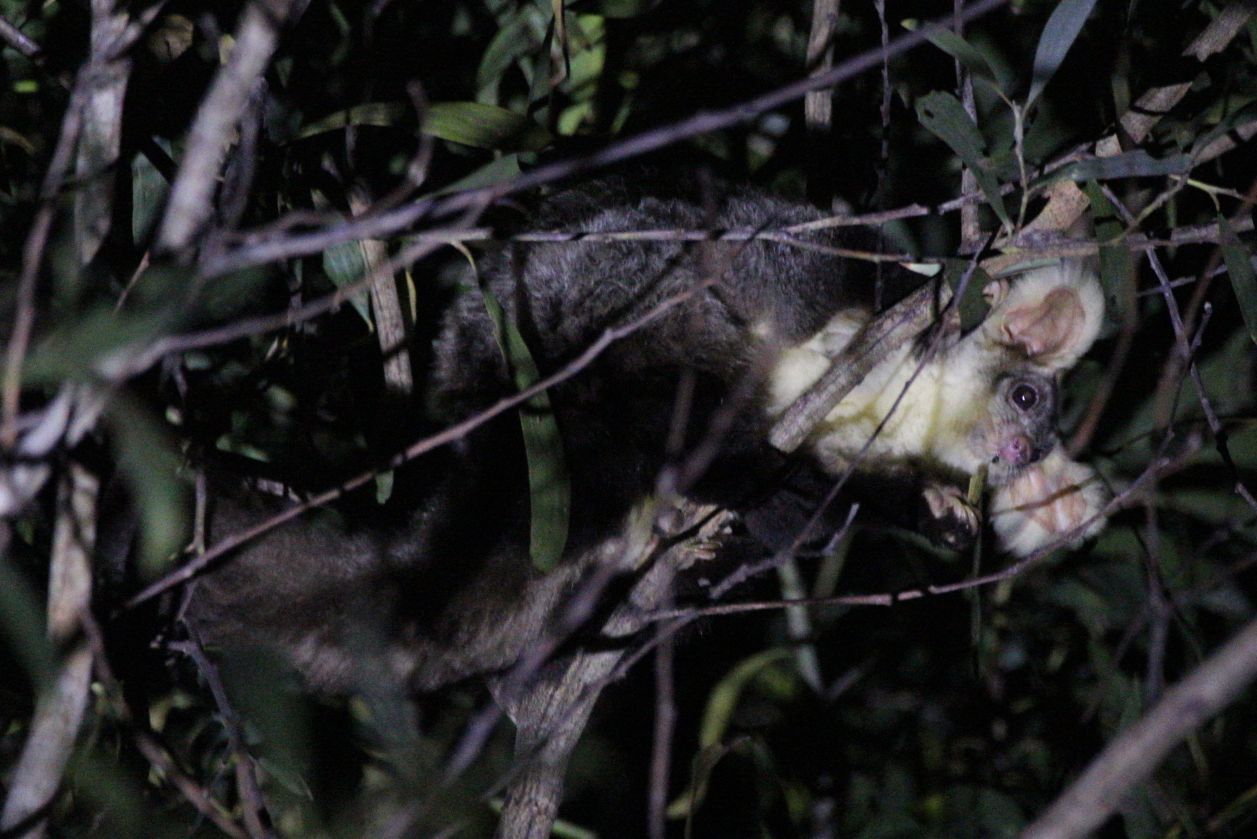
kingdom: Animalia
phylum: Chordata
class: Mammalia
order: Diprotodontia
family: Pseudocheiridae
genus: Petauroides
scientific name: Petauroides volans
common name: Greater glider
